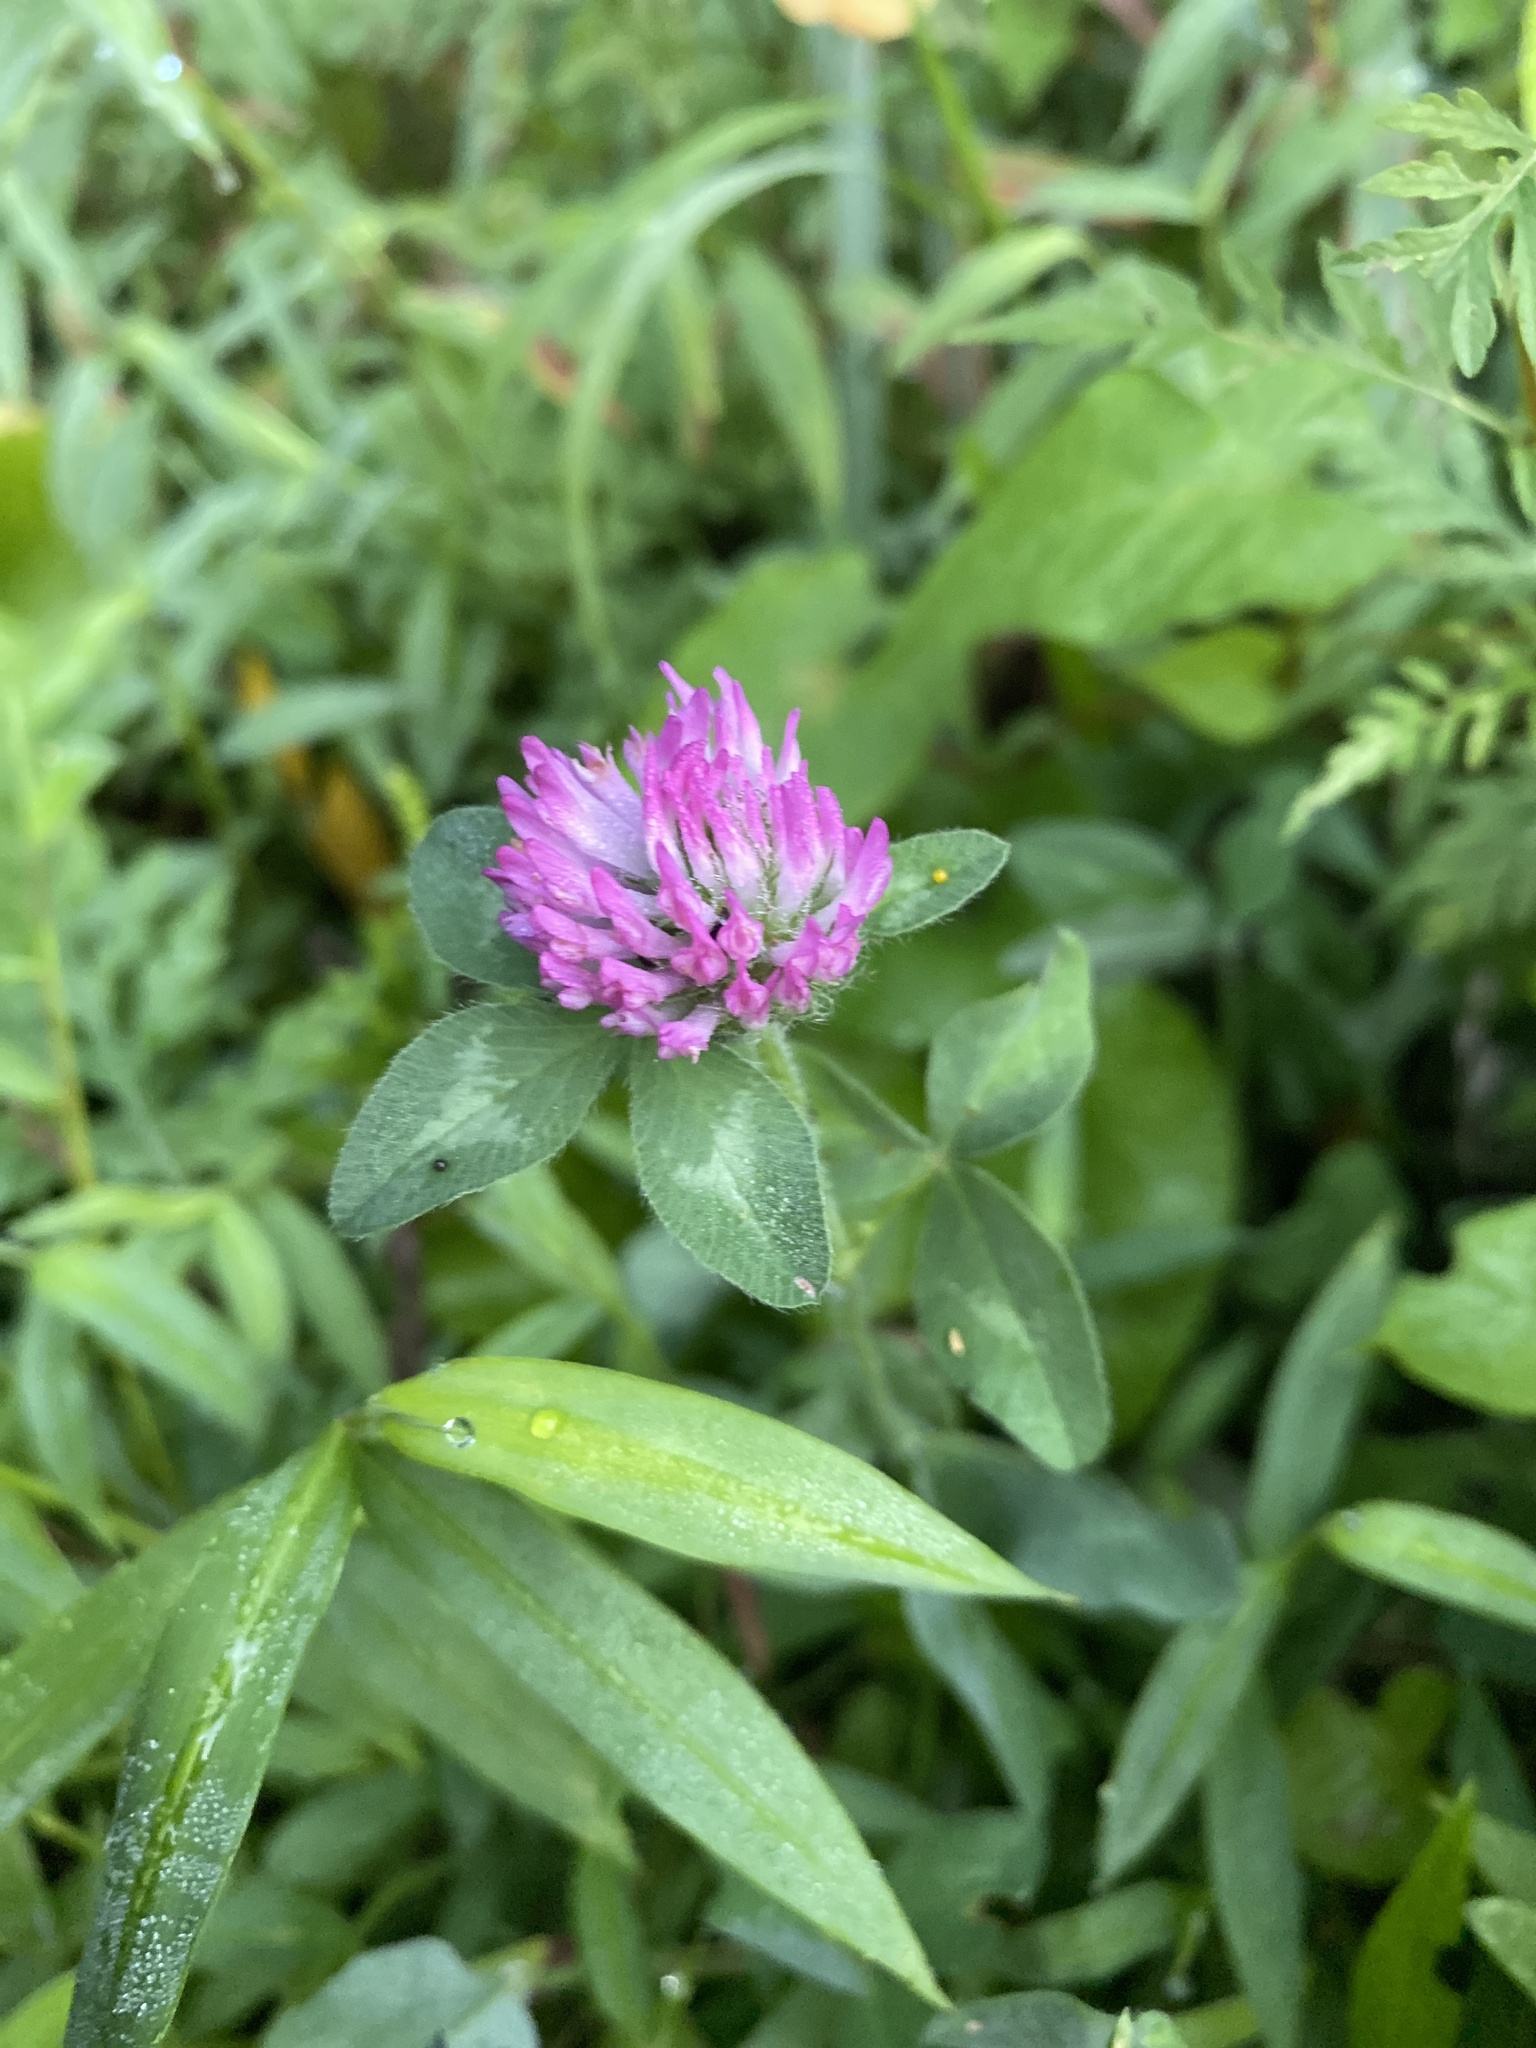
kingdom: Plantae
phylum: Tracheophyta
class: Magnoliopsida
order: Fabales
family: Fabaceae
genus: Trifolium
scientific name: Trifolium pratense
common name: Red clover
